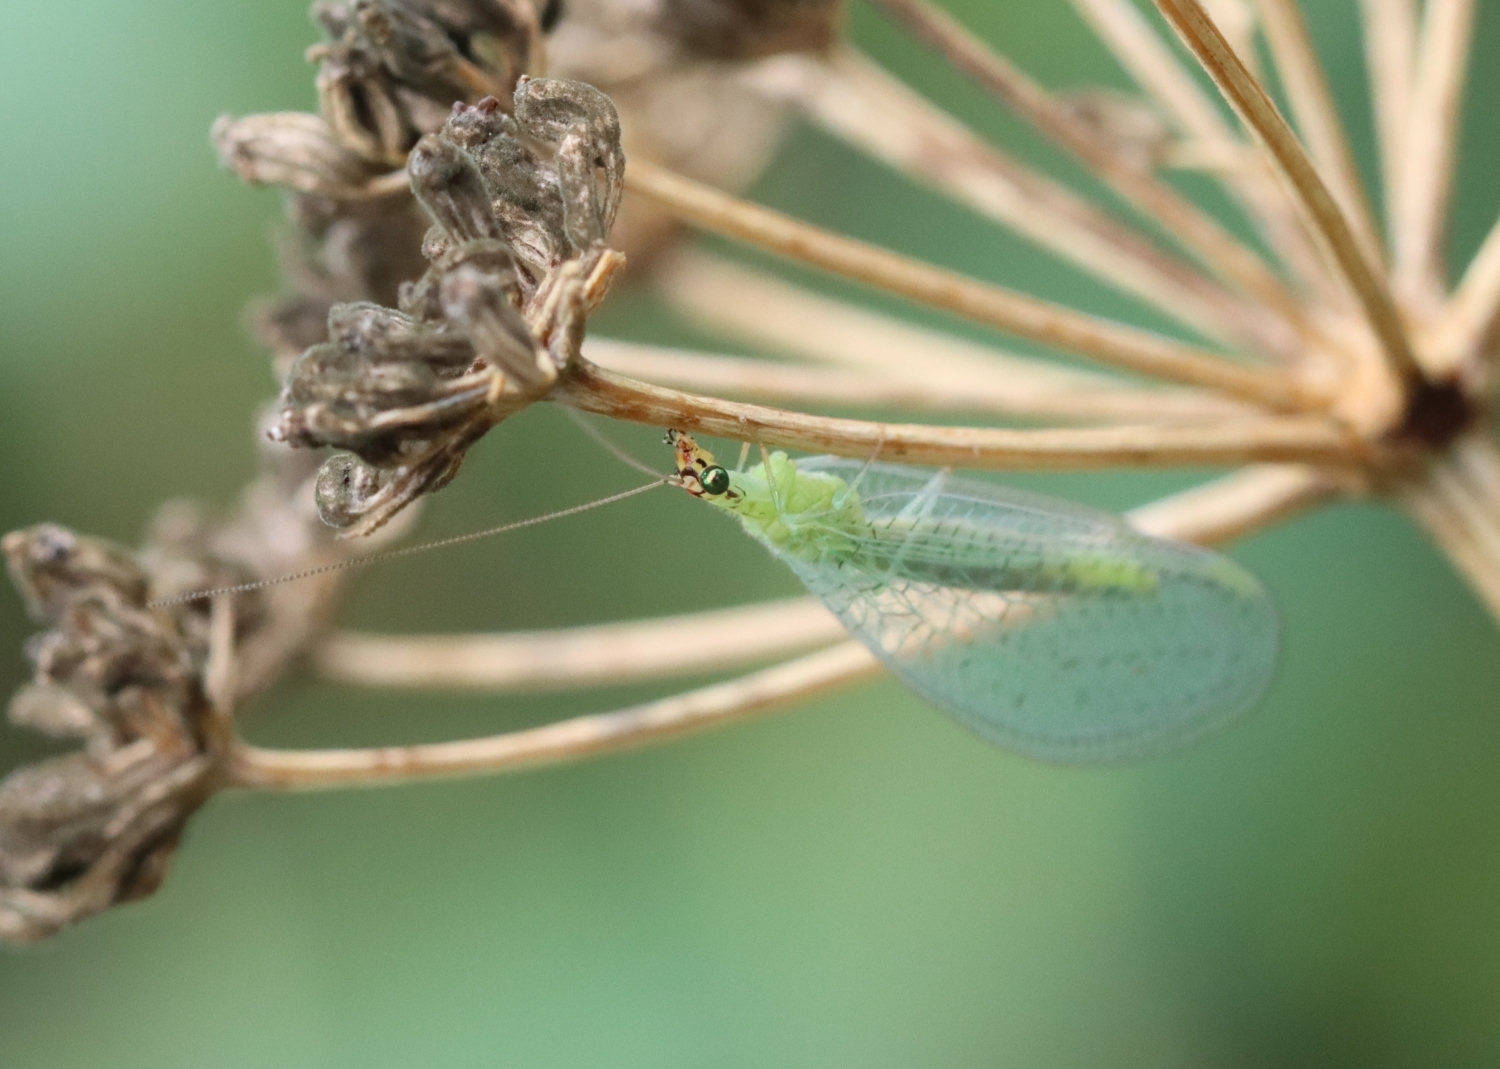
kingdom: Animalia
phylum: Arthropoda
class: Insecta
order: Neuroptera
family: Chrysopidae
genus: Chrysopa
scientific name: Chrysopa oculata
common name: Golden-eyed lacewing
